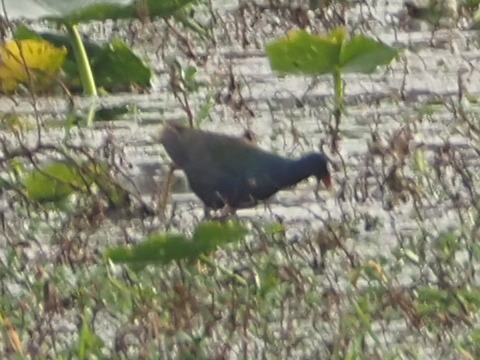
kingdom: Animalia
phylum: Chordata
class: Aves
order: Gruiformes
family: Rallidae
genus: Porphyrio
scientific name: Porphyrio martinica
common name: Purple gallinule
